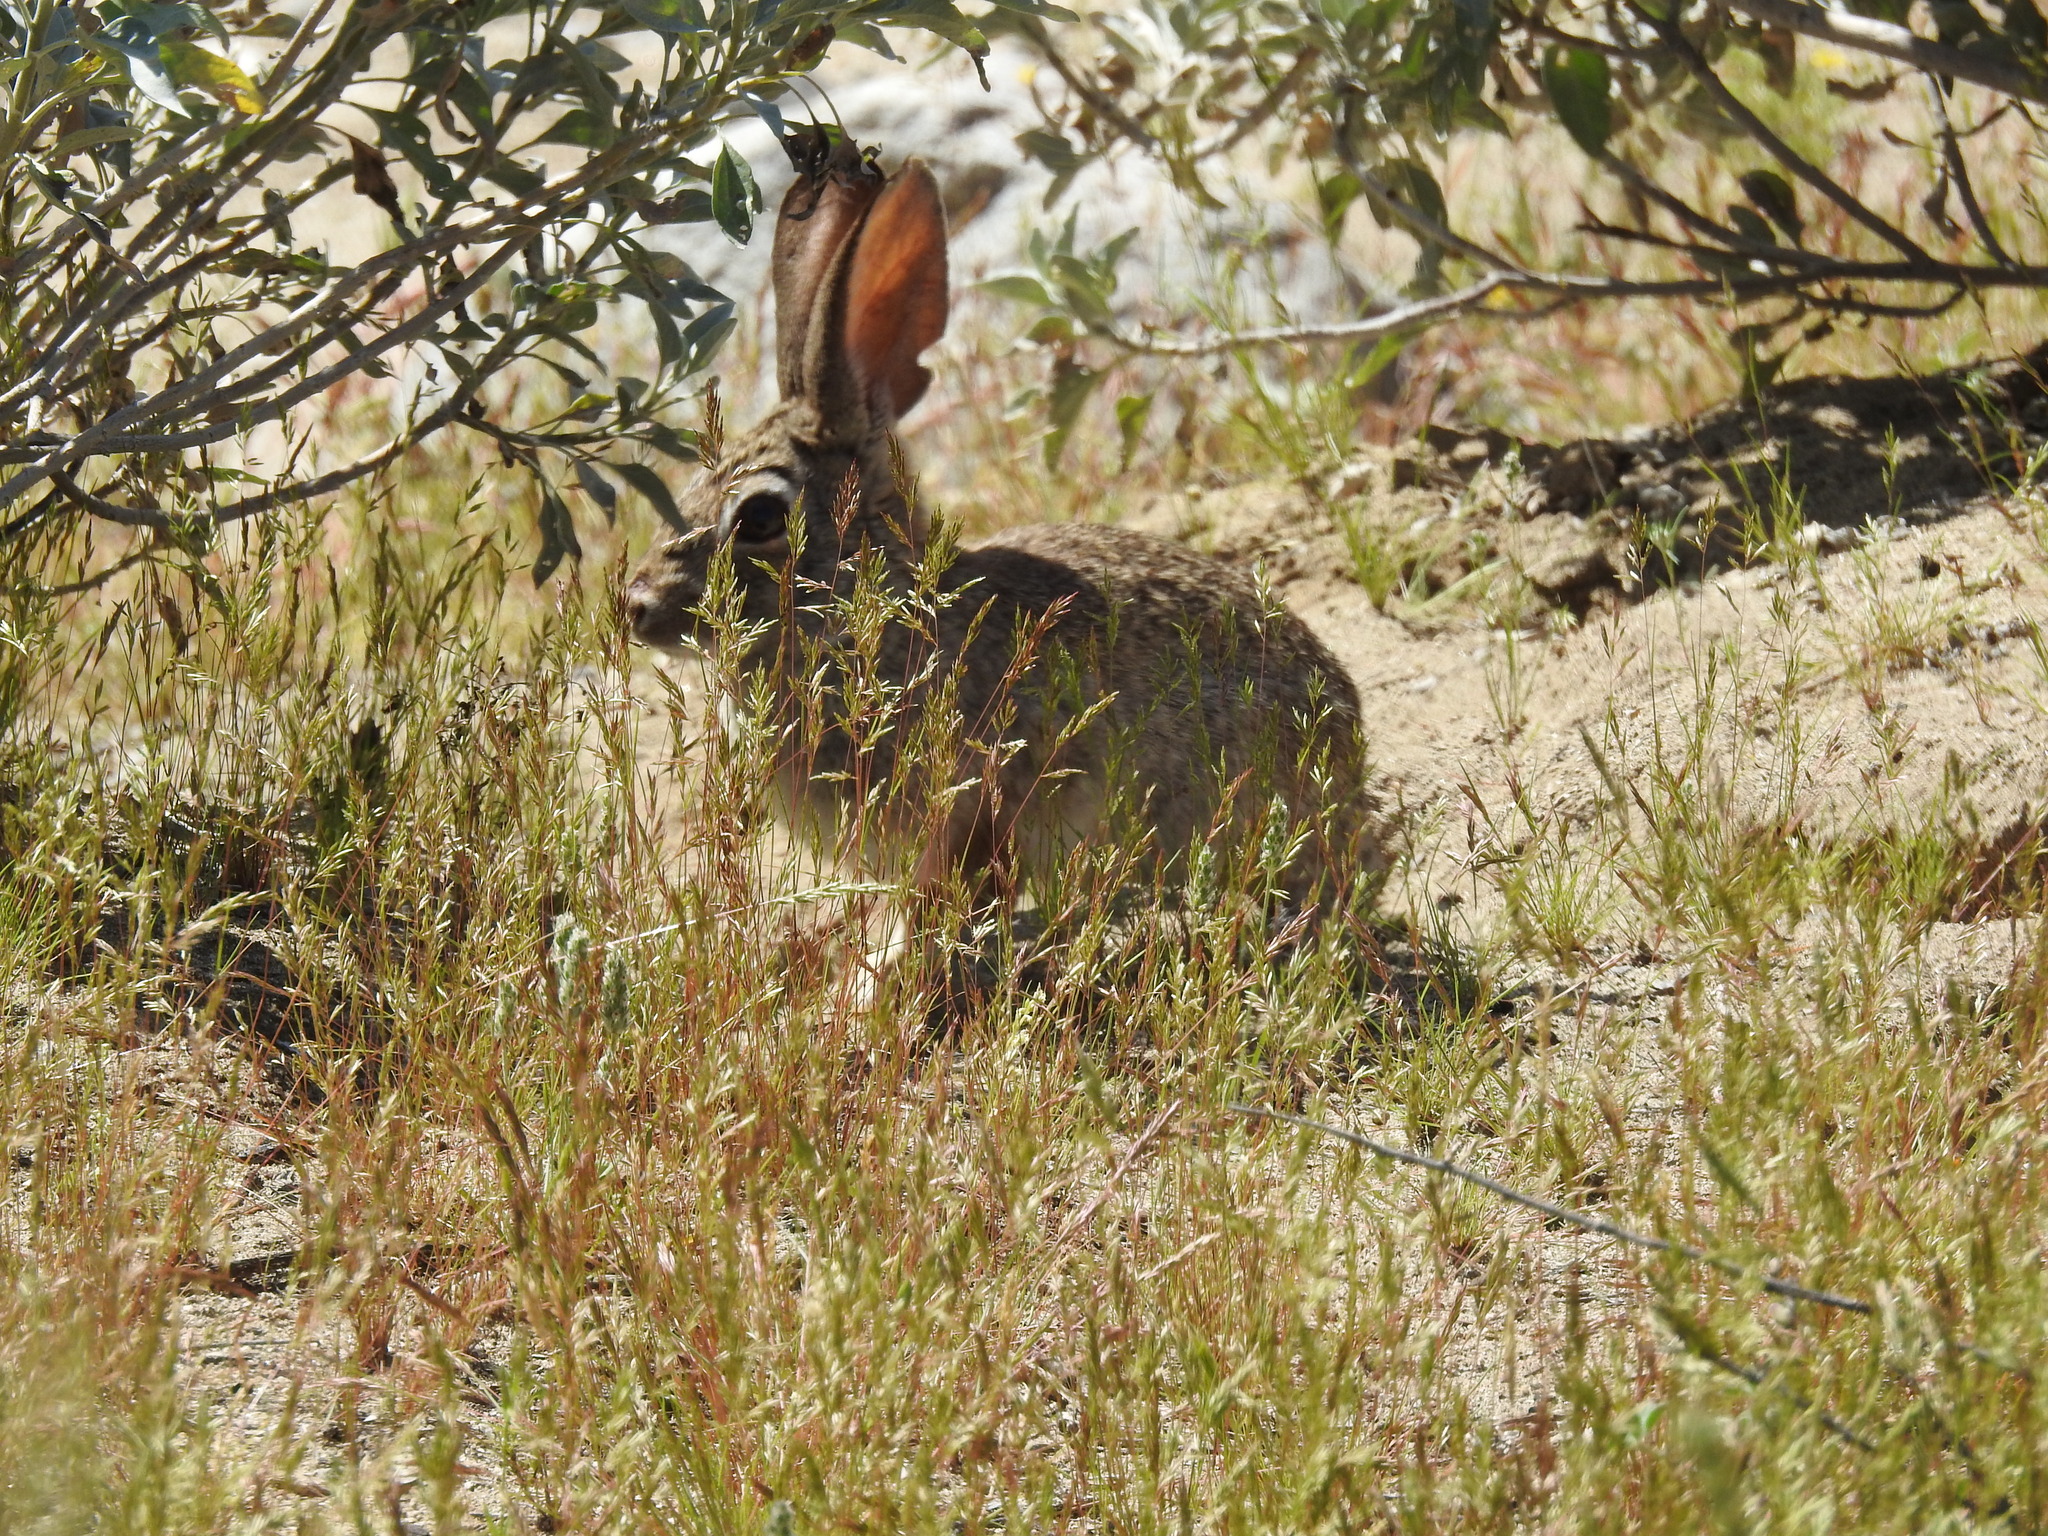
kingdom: Animalia
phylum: Chordata
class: Mammalia
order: Lagomorpha
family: Leporidae
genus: Sylvilagus
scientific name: Sylvilagus audubonii
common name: Desert cottontail
